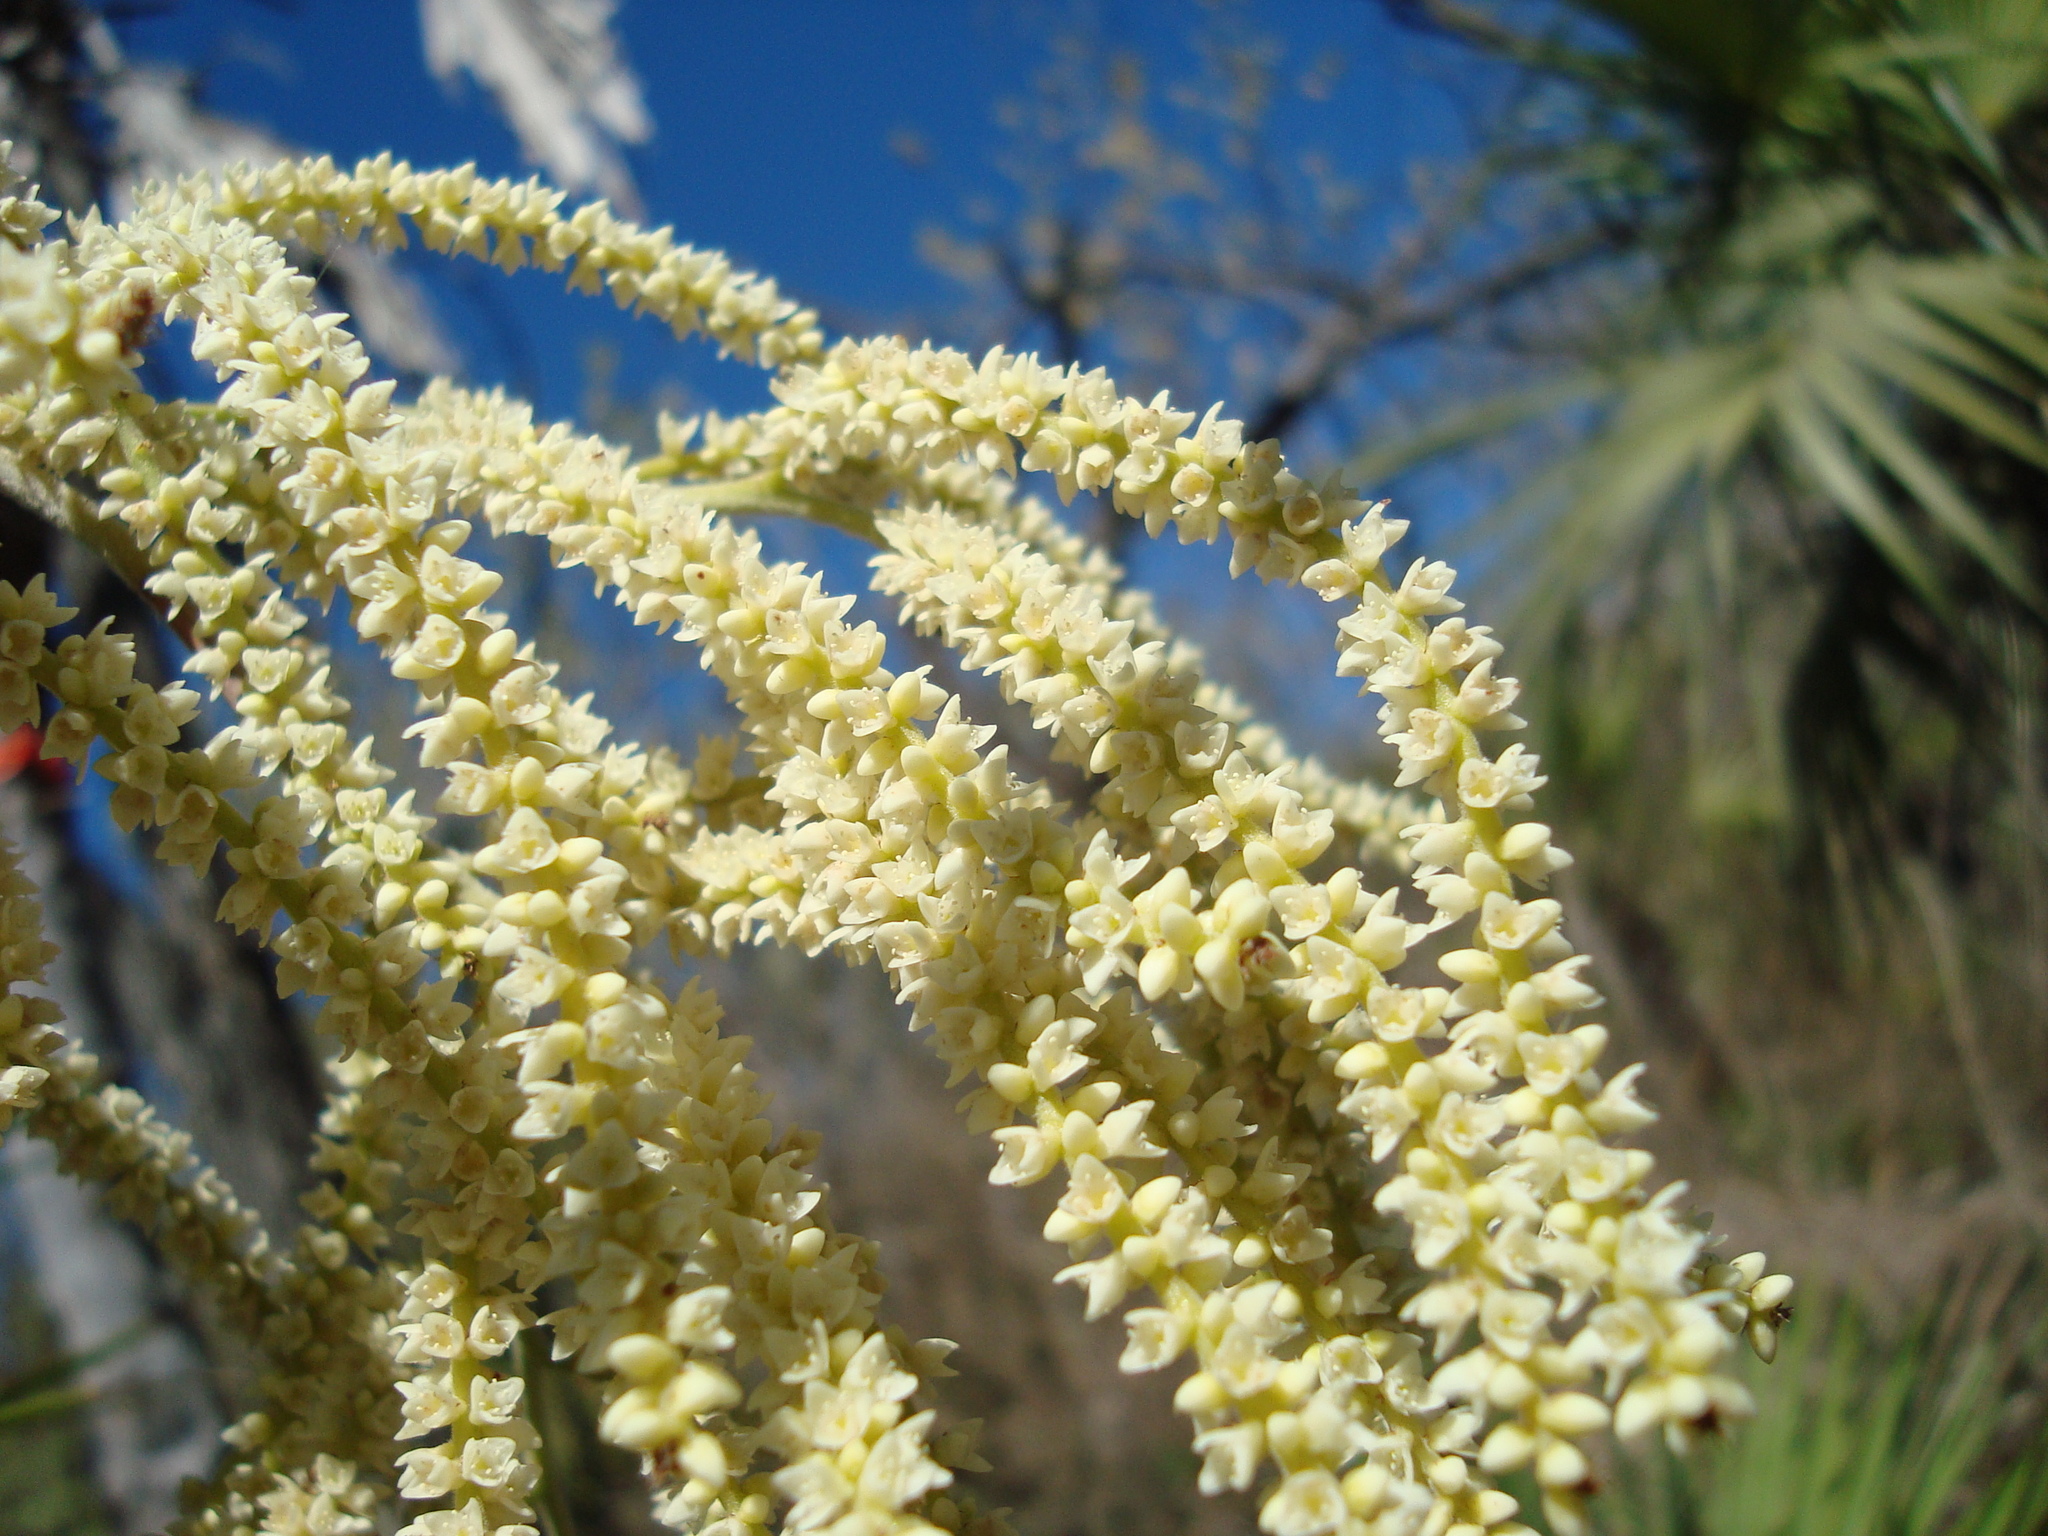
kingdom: Plantae
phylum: Tracheophyta
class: Liliopsida
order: Arecales
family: Arecaceae
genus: Brahea
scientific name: Brahea aculeata
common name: Sinaloa hesper palm
